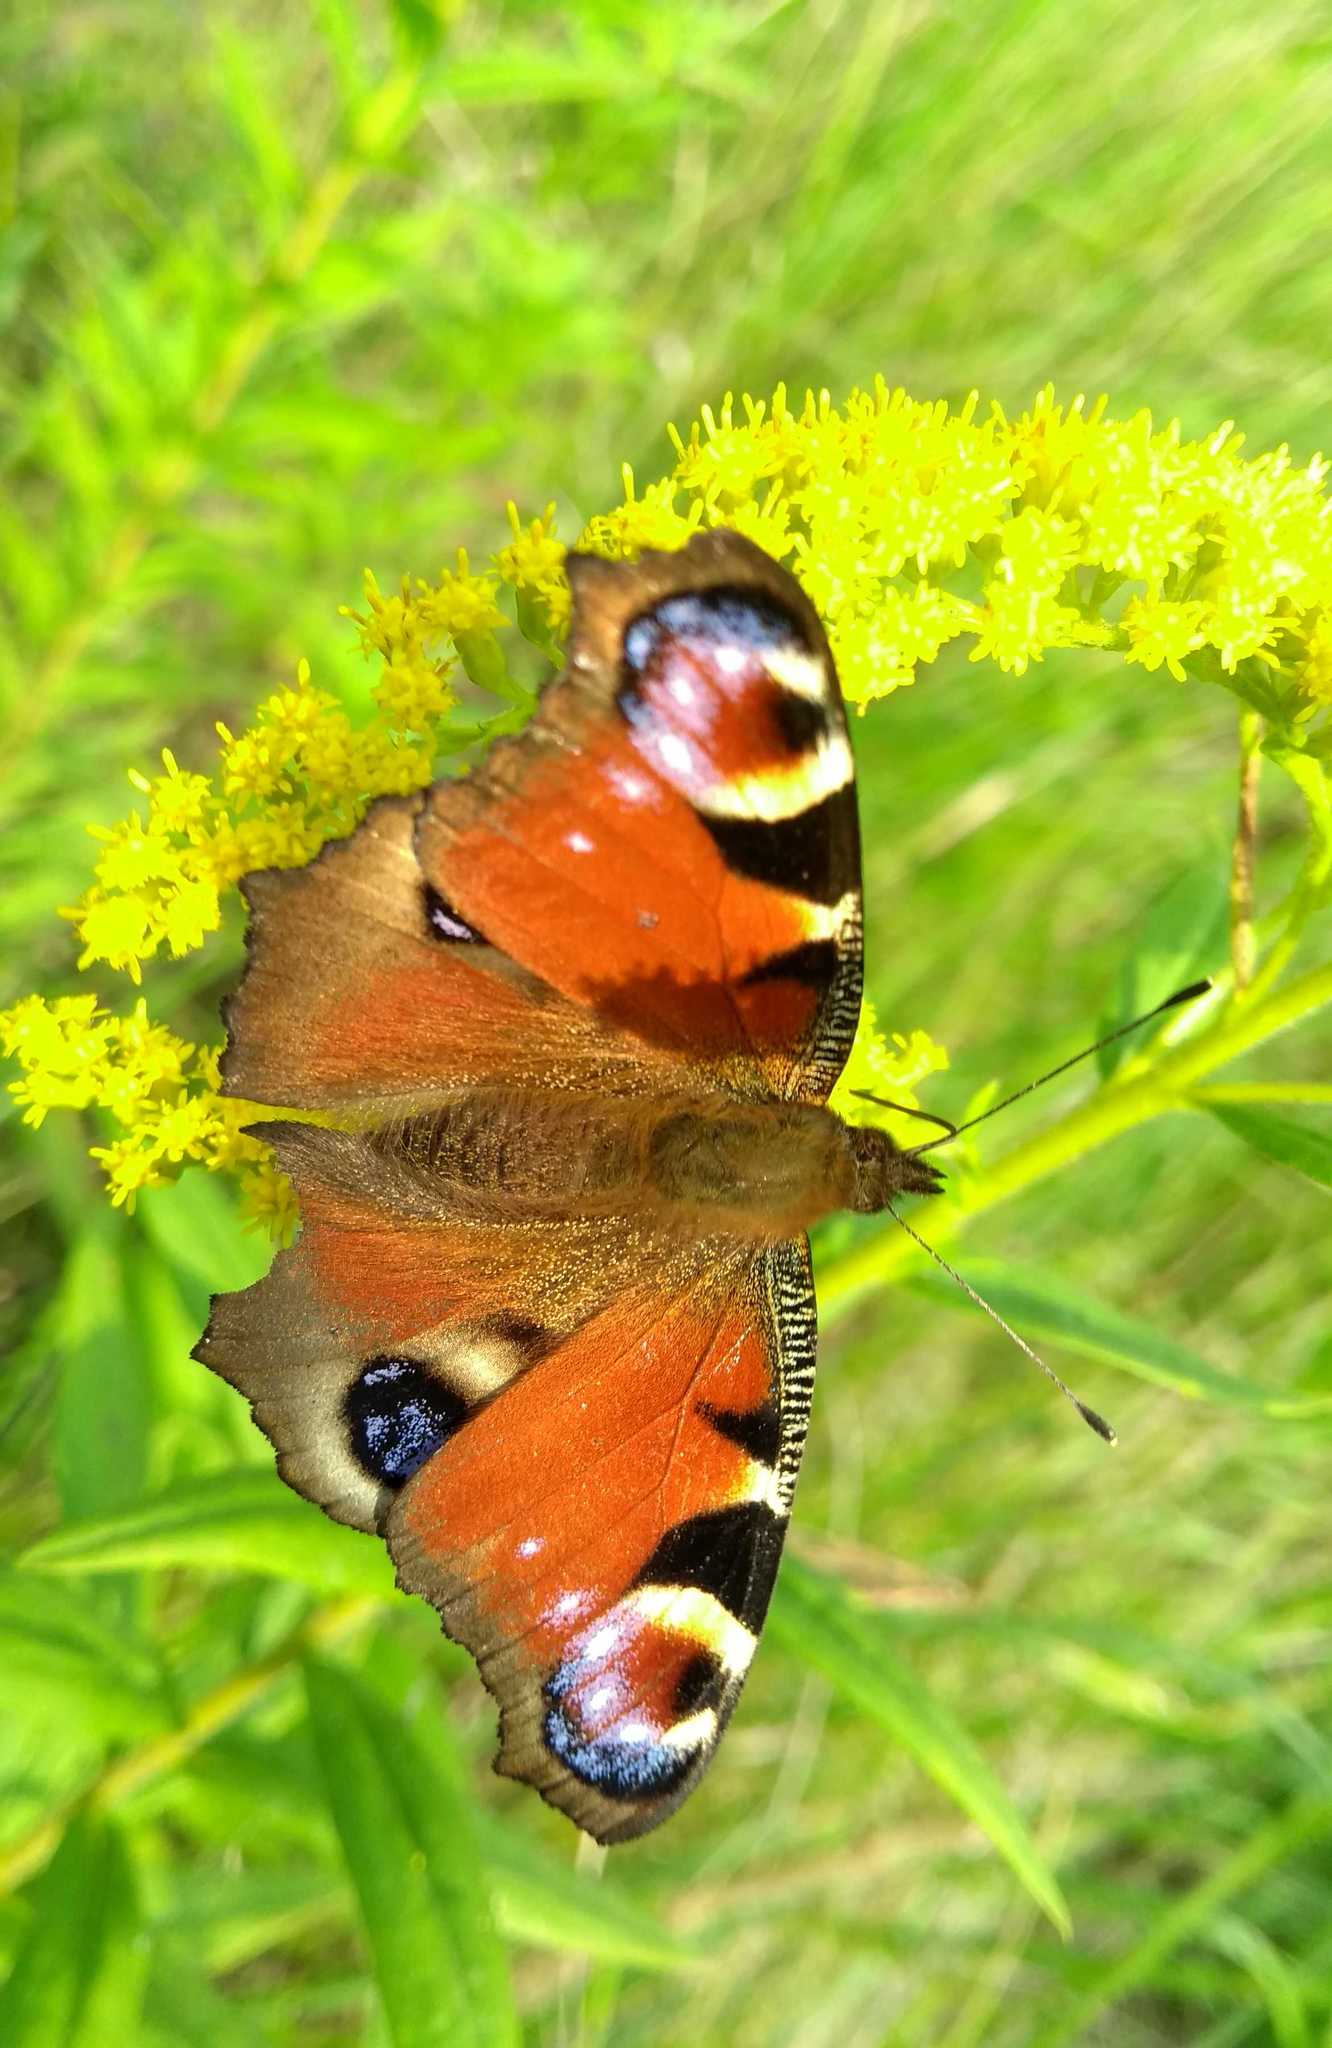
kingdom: Animalia
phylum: Arthropoda
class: Insecta
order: Lepidoptera
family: Nymphalidae
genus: Aglais
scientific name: Aglais io
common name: Peacock
